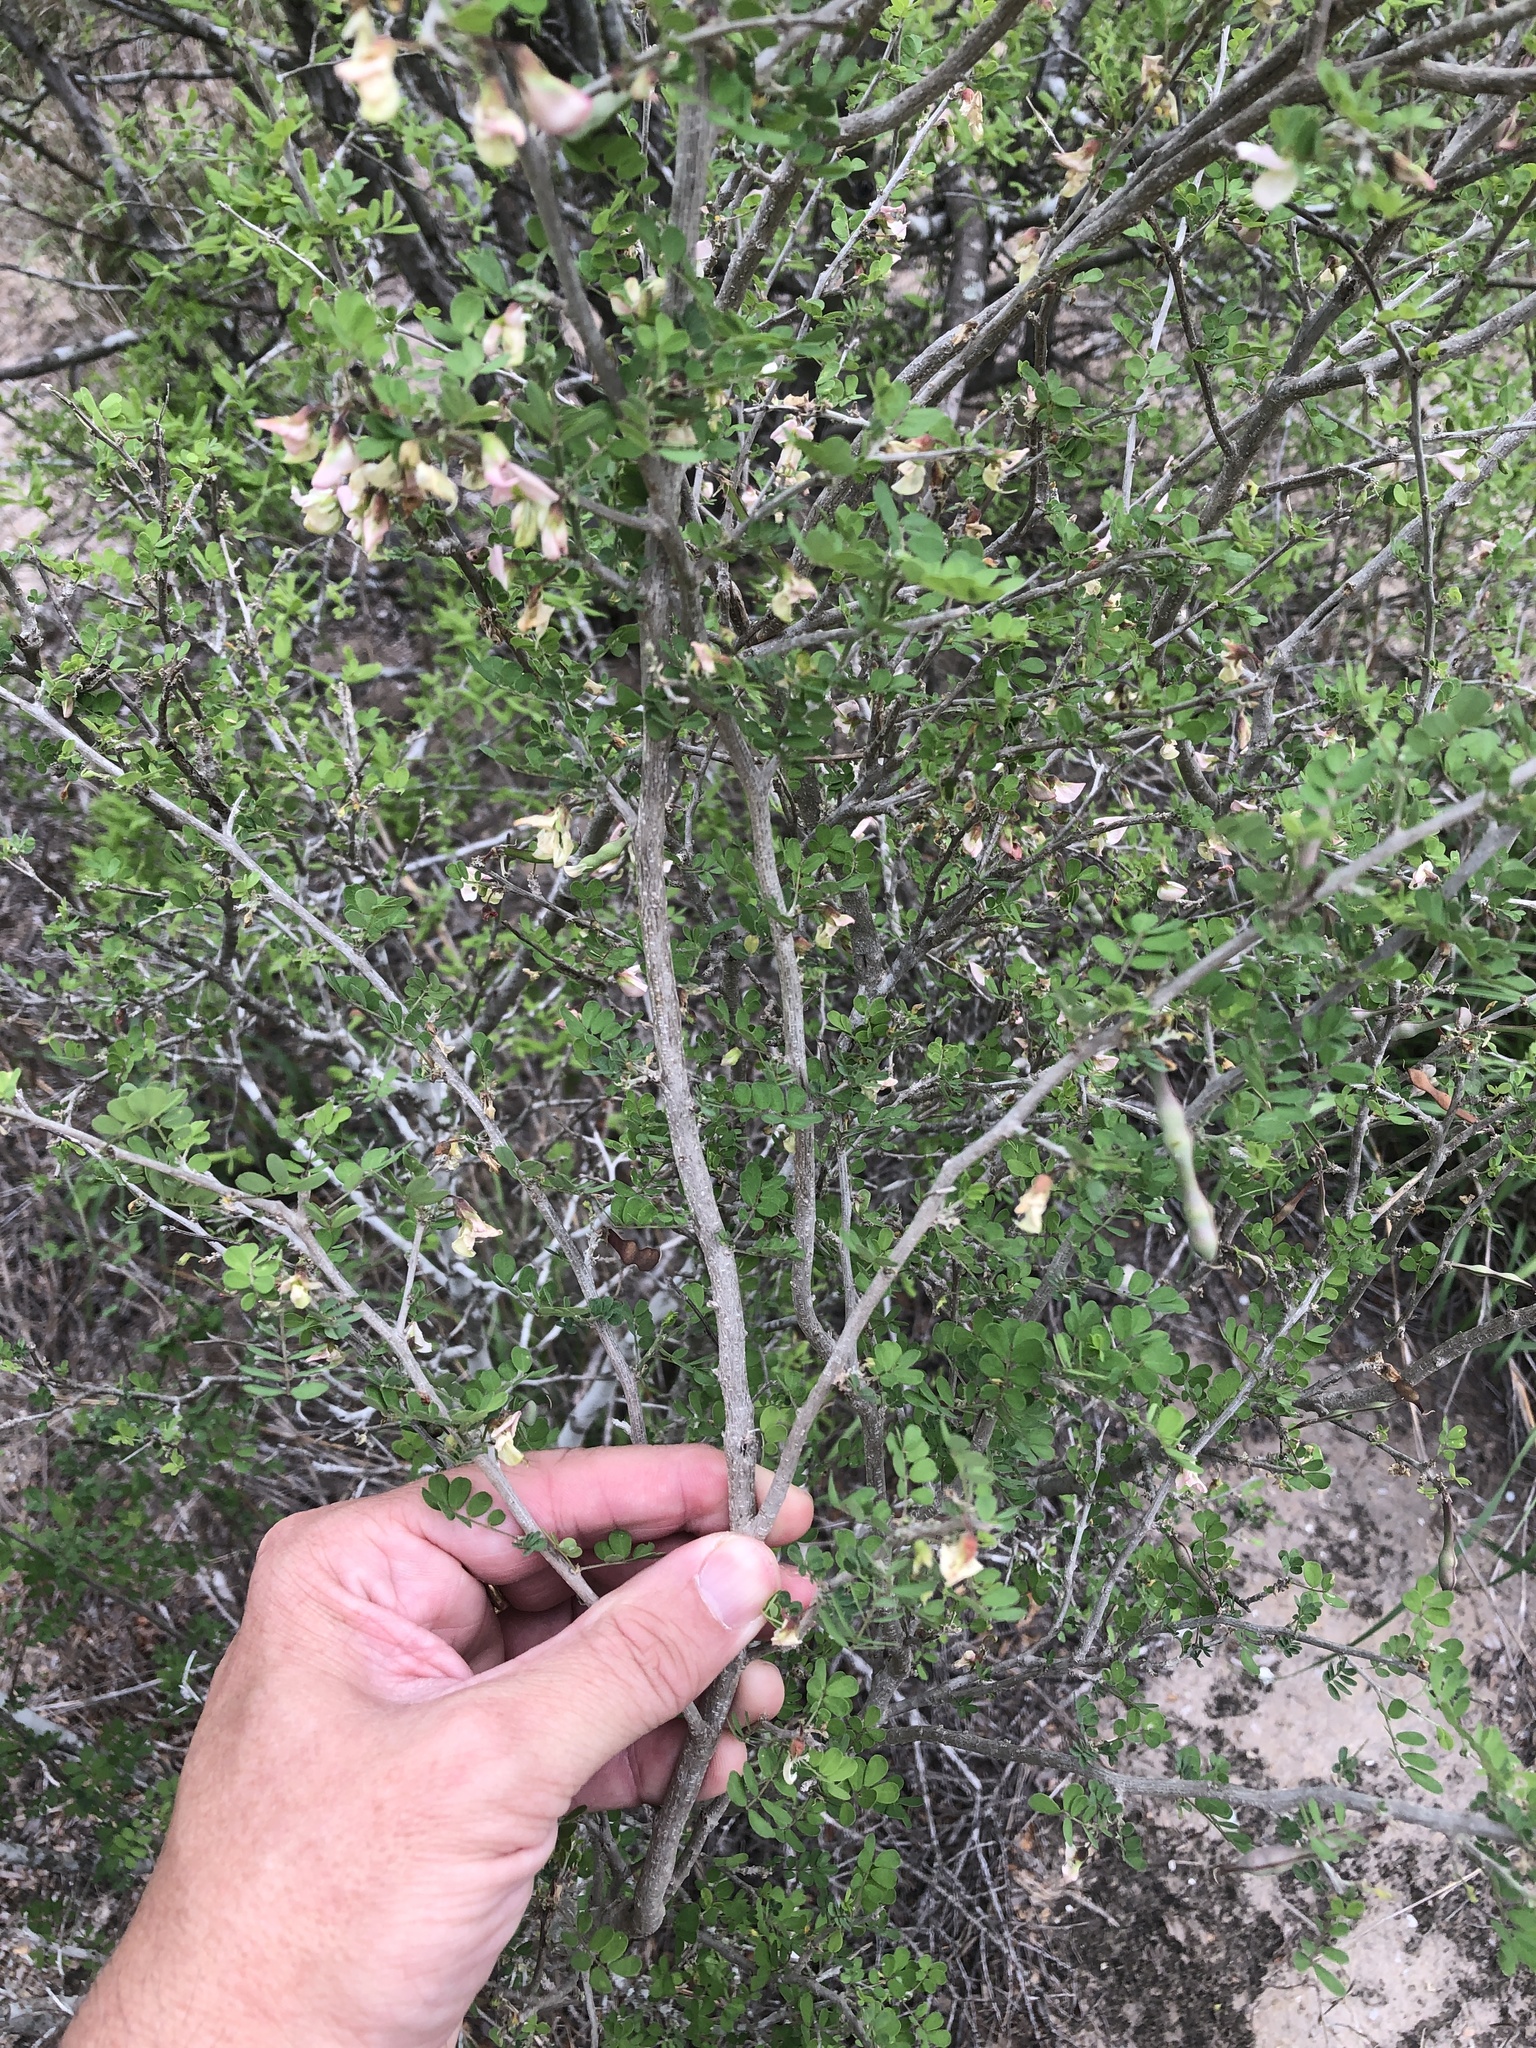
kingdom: Plantae
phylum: Tracheophyta
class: Magnoliopsida
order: Fabales
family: Fabaceae
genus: Coursetia
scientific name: Coursetia axillaris
